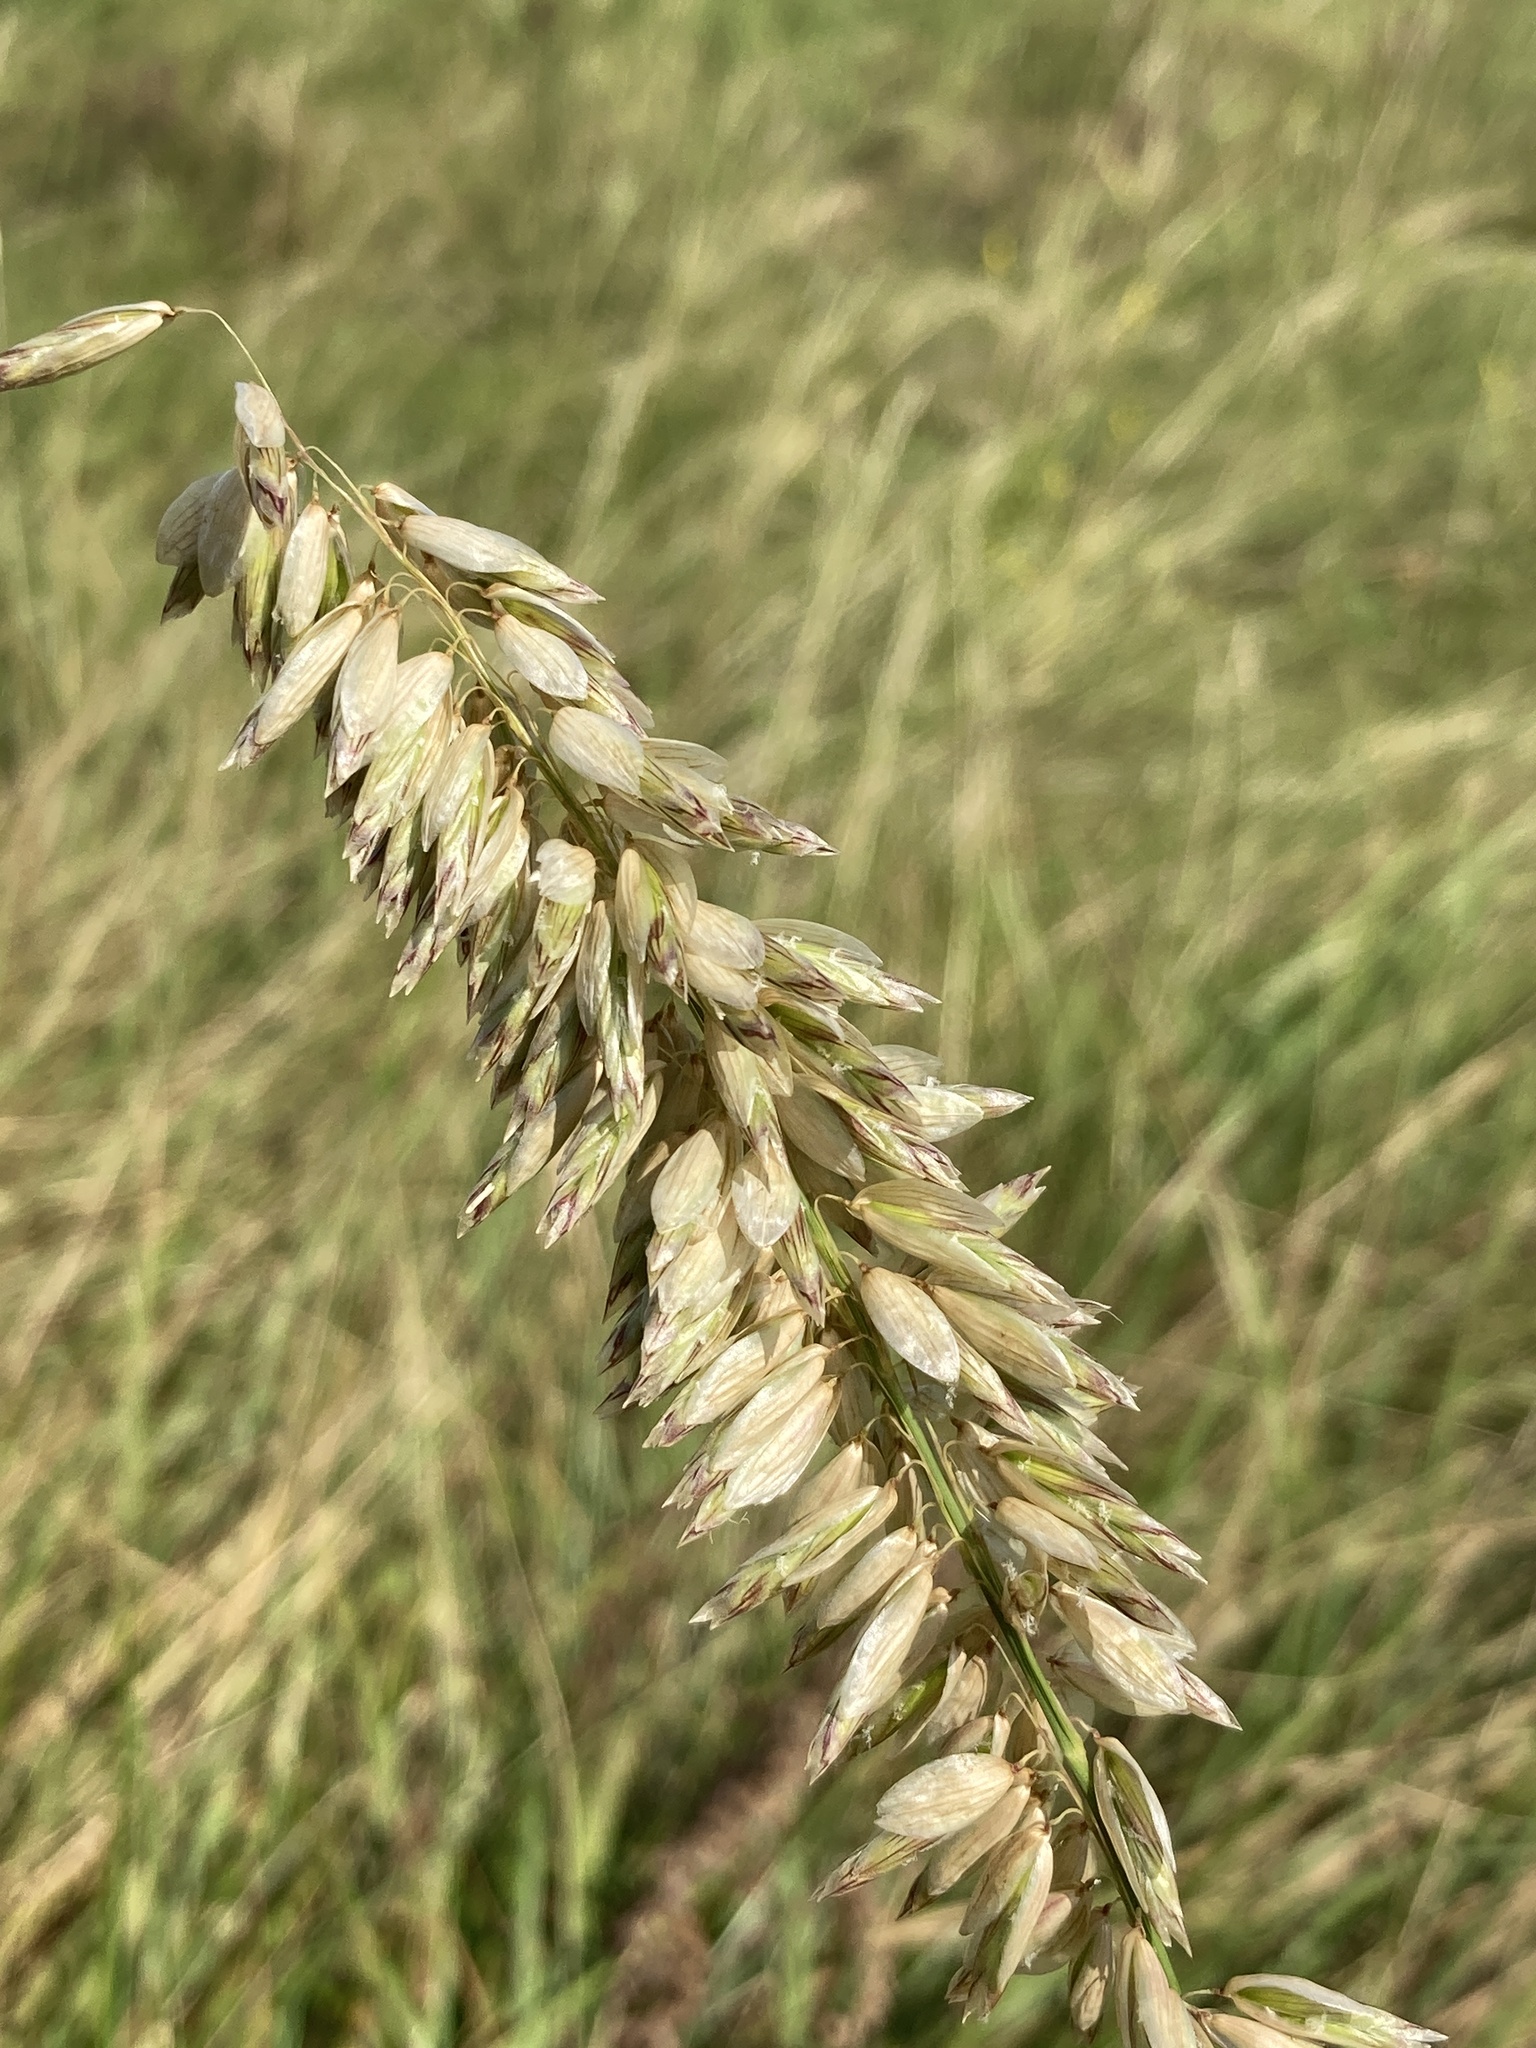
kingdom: Plantae
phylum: Tracheophyta
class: Liliopsida
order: Poales
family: Poaceae
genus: Melica
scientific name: Melica altissima
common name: Siberian melicgrass
